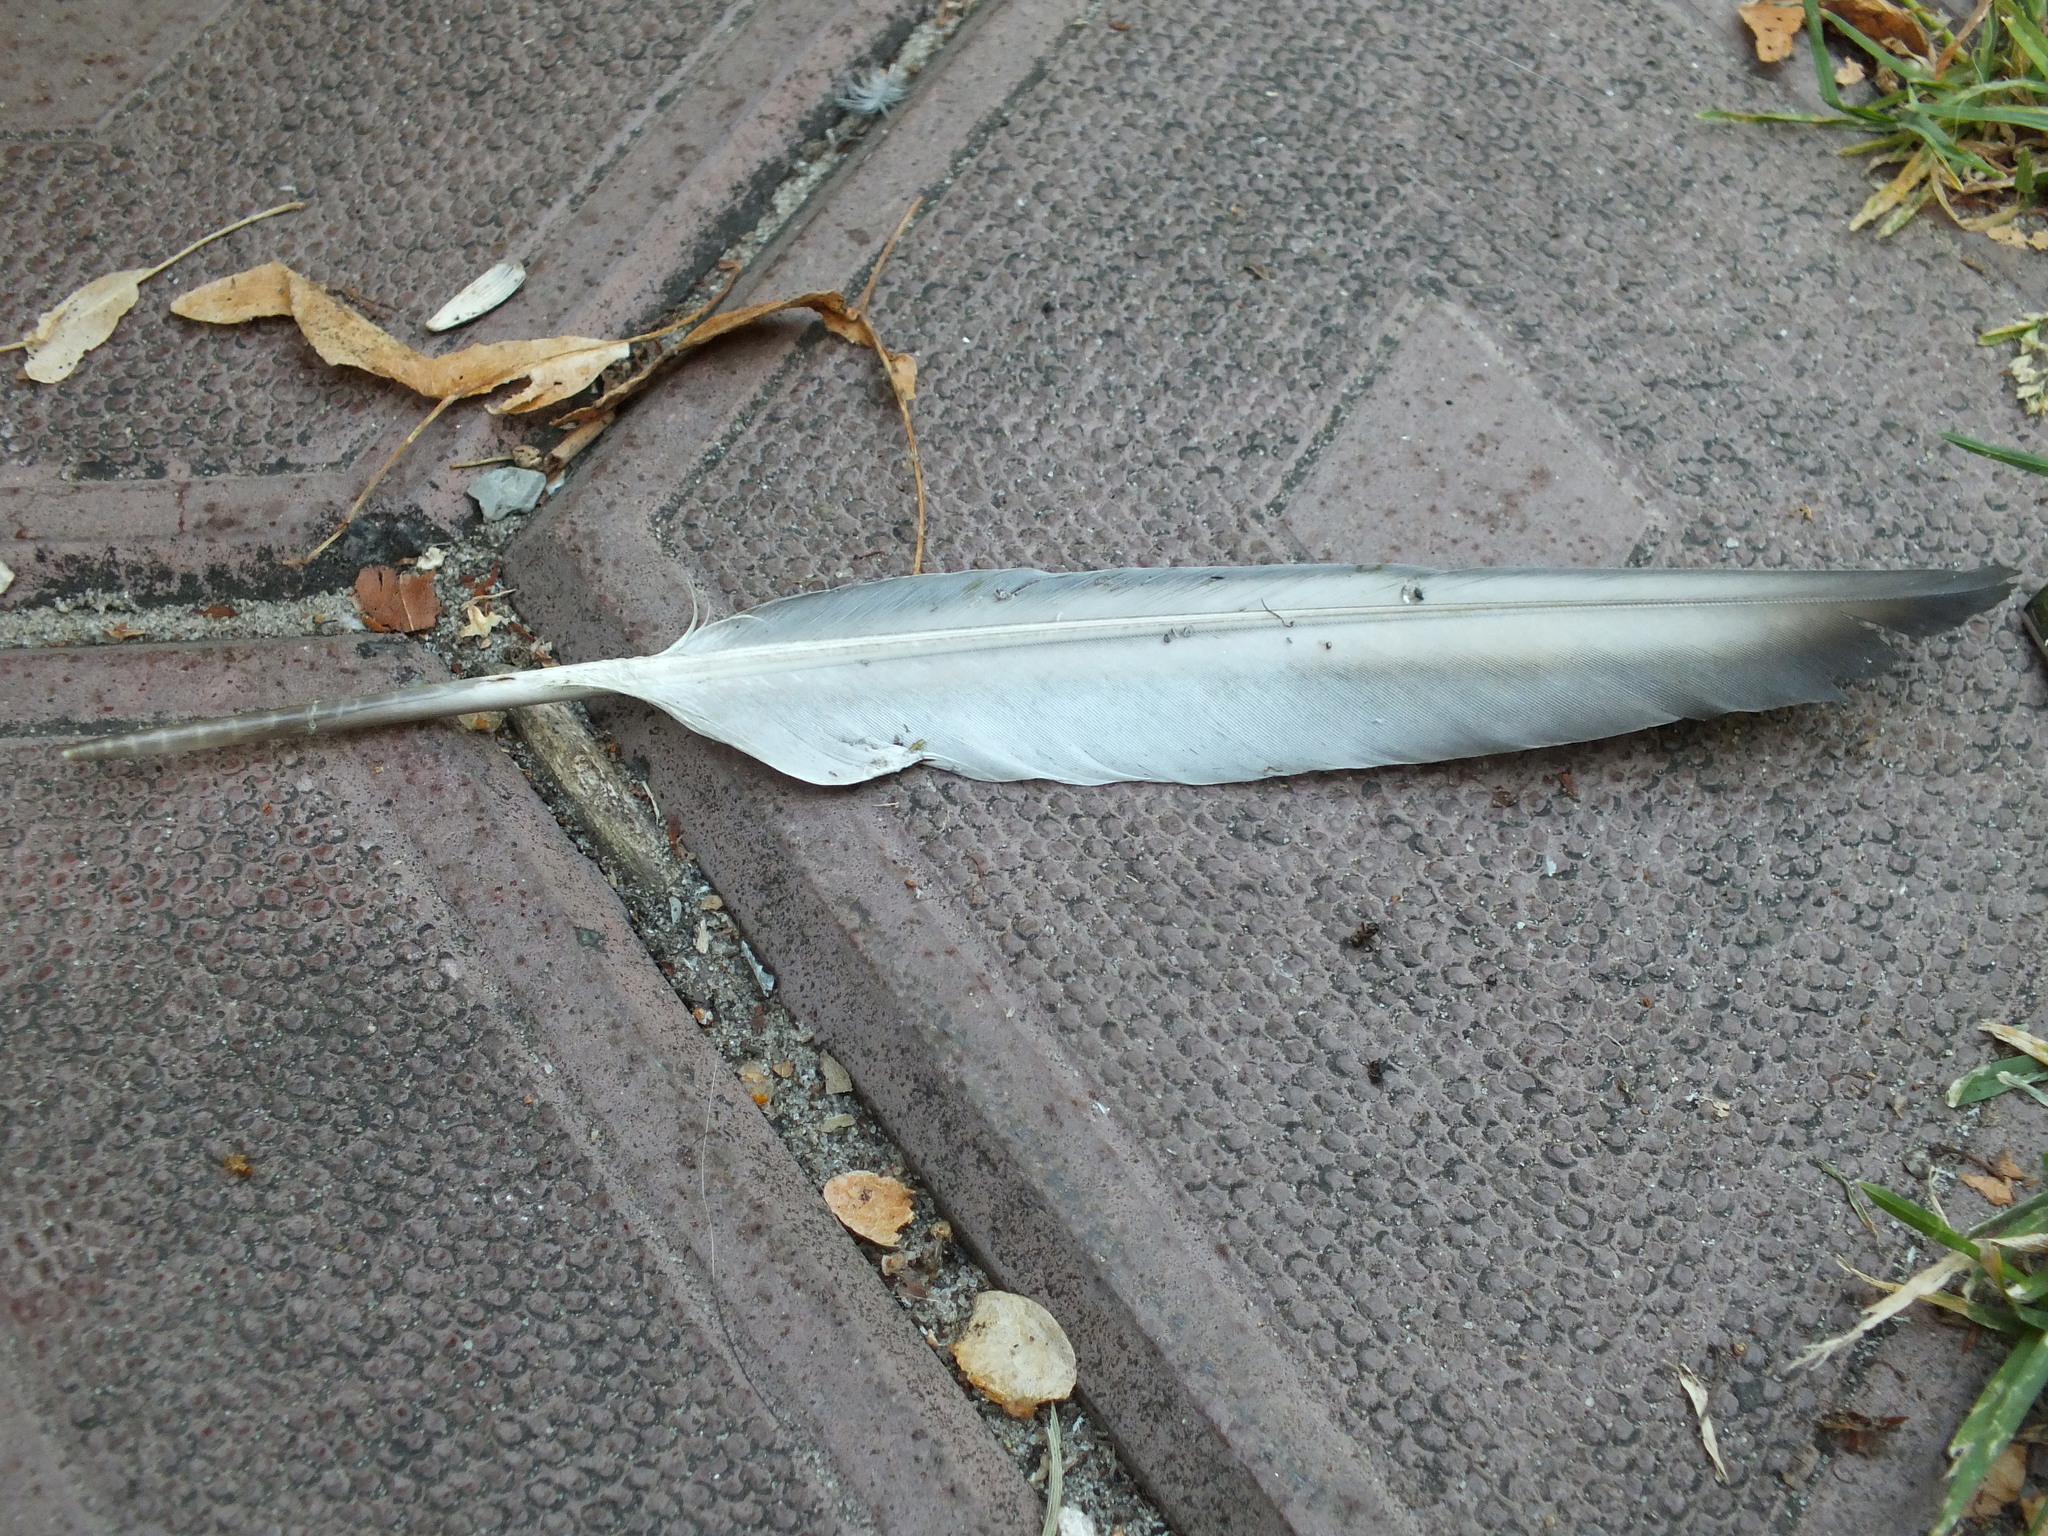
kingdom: Animalia
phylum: Chordata
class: Aves
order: Columbiformes
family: Columbidae
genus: Columba
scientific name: Columba livia
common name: Rock pigeon
